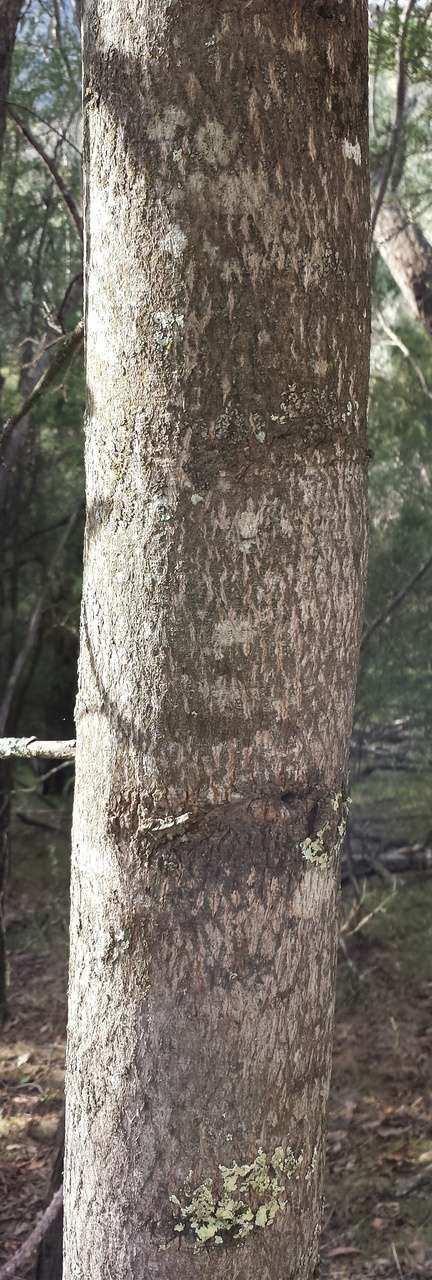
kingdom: Plantae
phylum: Tracheophyta
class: Magnoliopsida
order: Malvales
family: Malvaceae
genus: Brachychiton
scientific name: Brachychiton populneus
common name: Kurrajong
